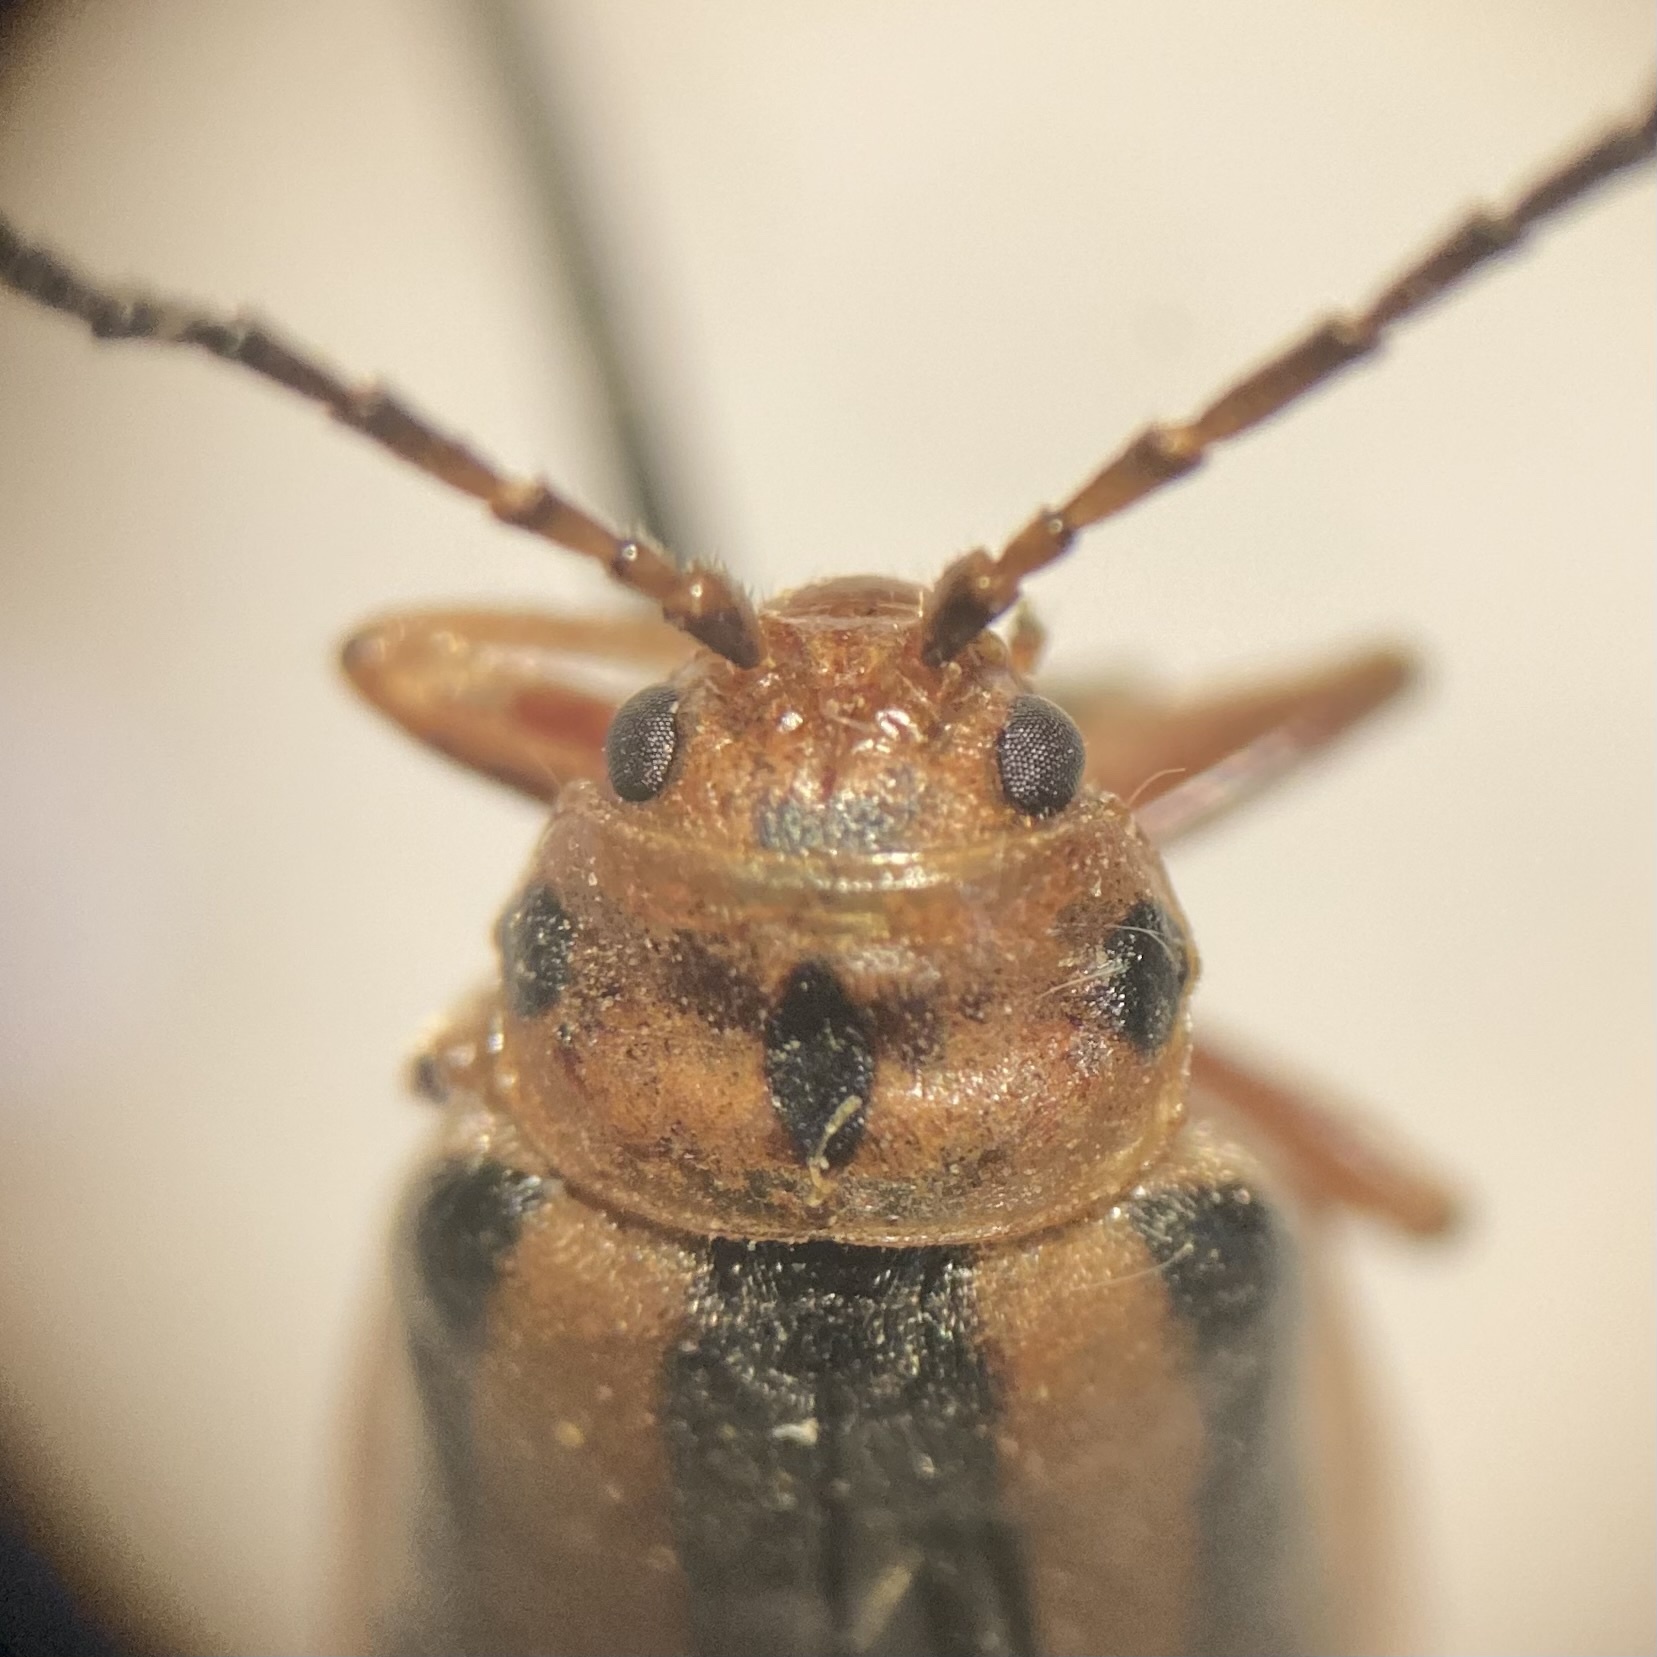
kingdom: Animalia
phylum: Arthropoda
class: Insecta
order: Coleoptera
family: Chrysomelidae
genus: Trirhabda
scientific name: Trirhabda canadensis
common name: Goldenrod leaf beetle
